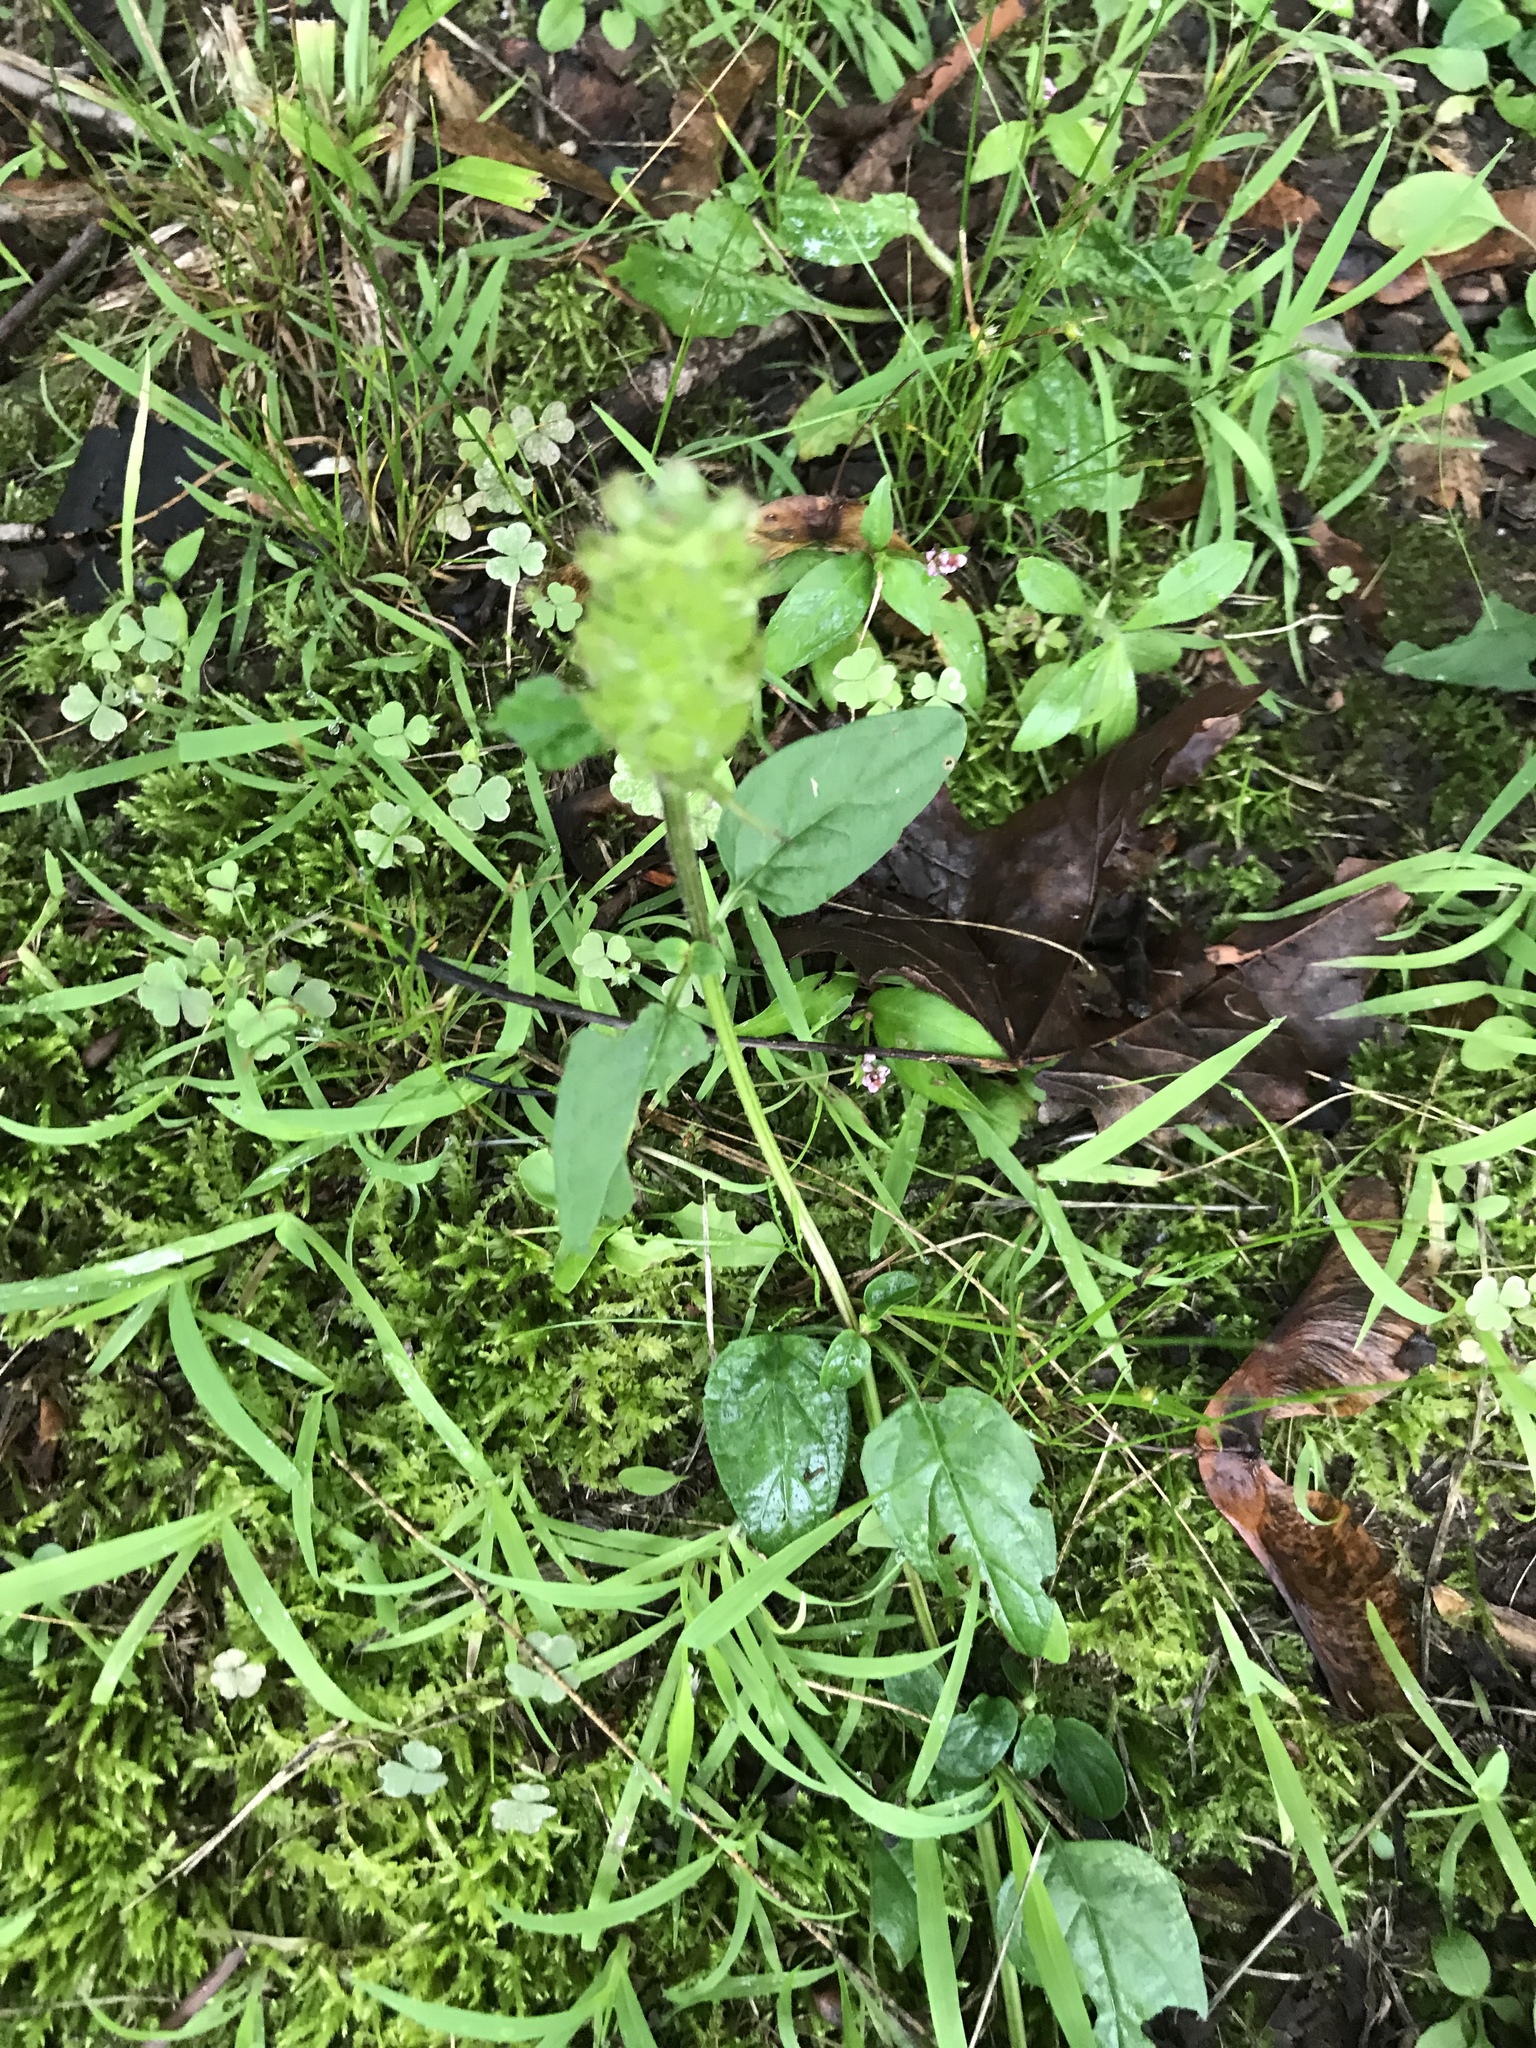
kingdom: Plantae
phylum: Tracheophyta
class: Magnoliopsida
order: Lamiales
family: Lamiaceae
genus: Prunella
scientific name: Prunella vulgaris
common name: Heal-all
